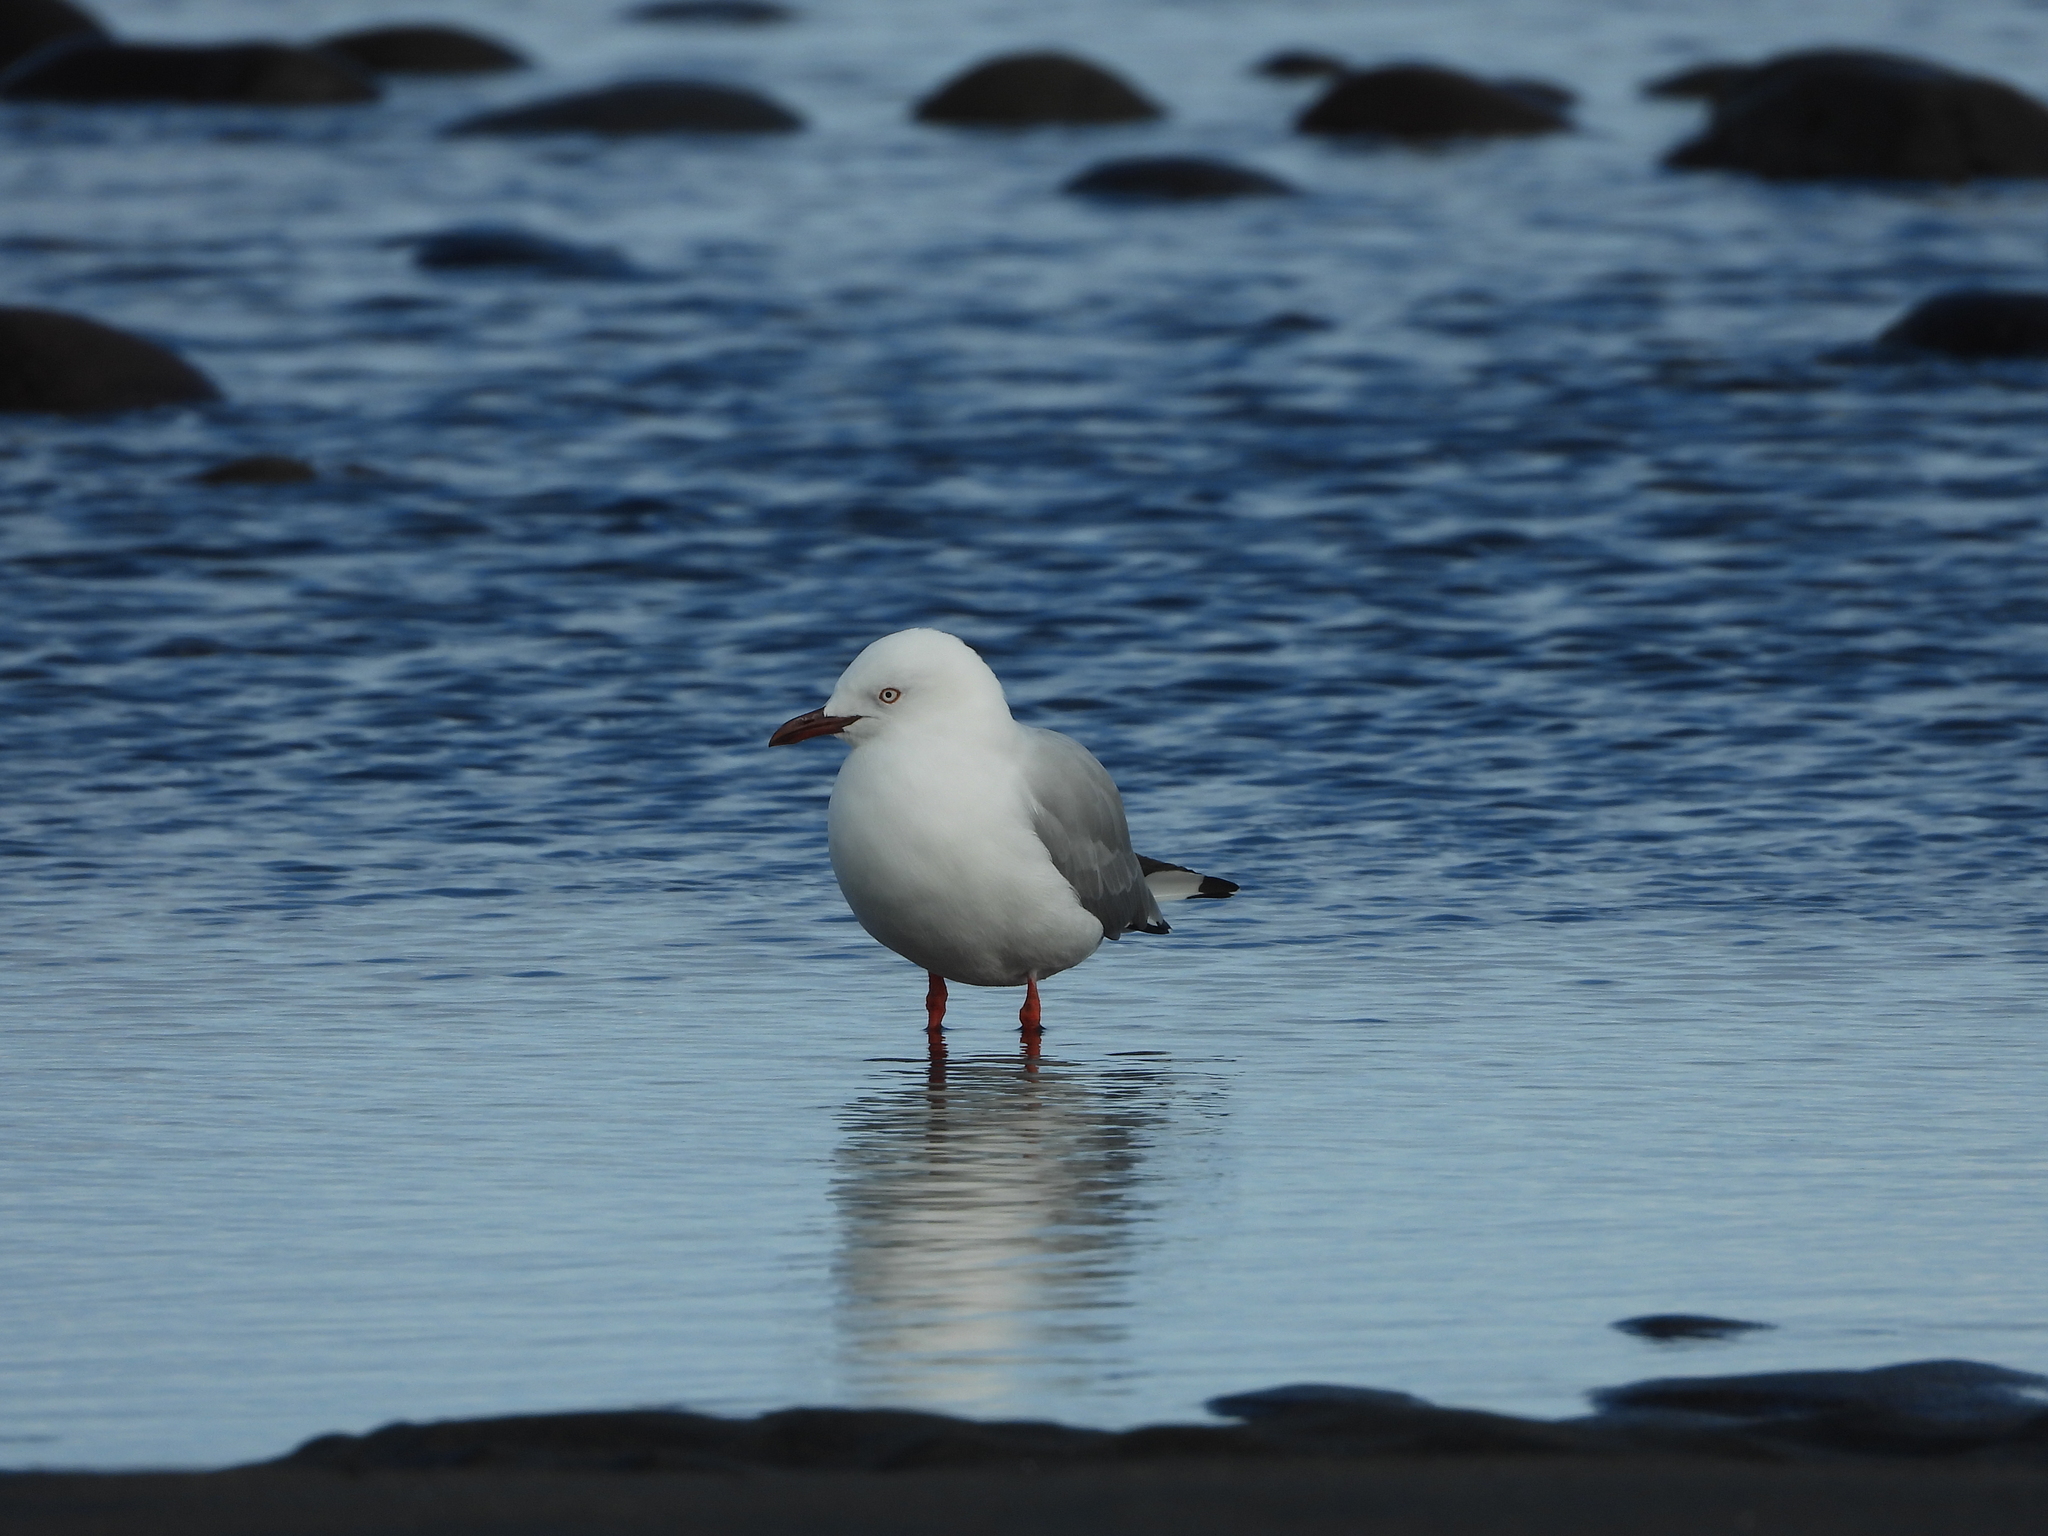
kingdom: Animalia
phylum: Chordata
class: Aves
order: Charadriiformes
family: Laridae
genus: Chroicocephalus
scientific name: Chroicocephalus novaehollandiae
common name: Silver gull
